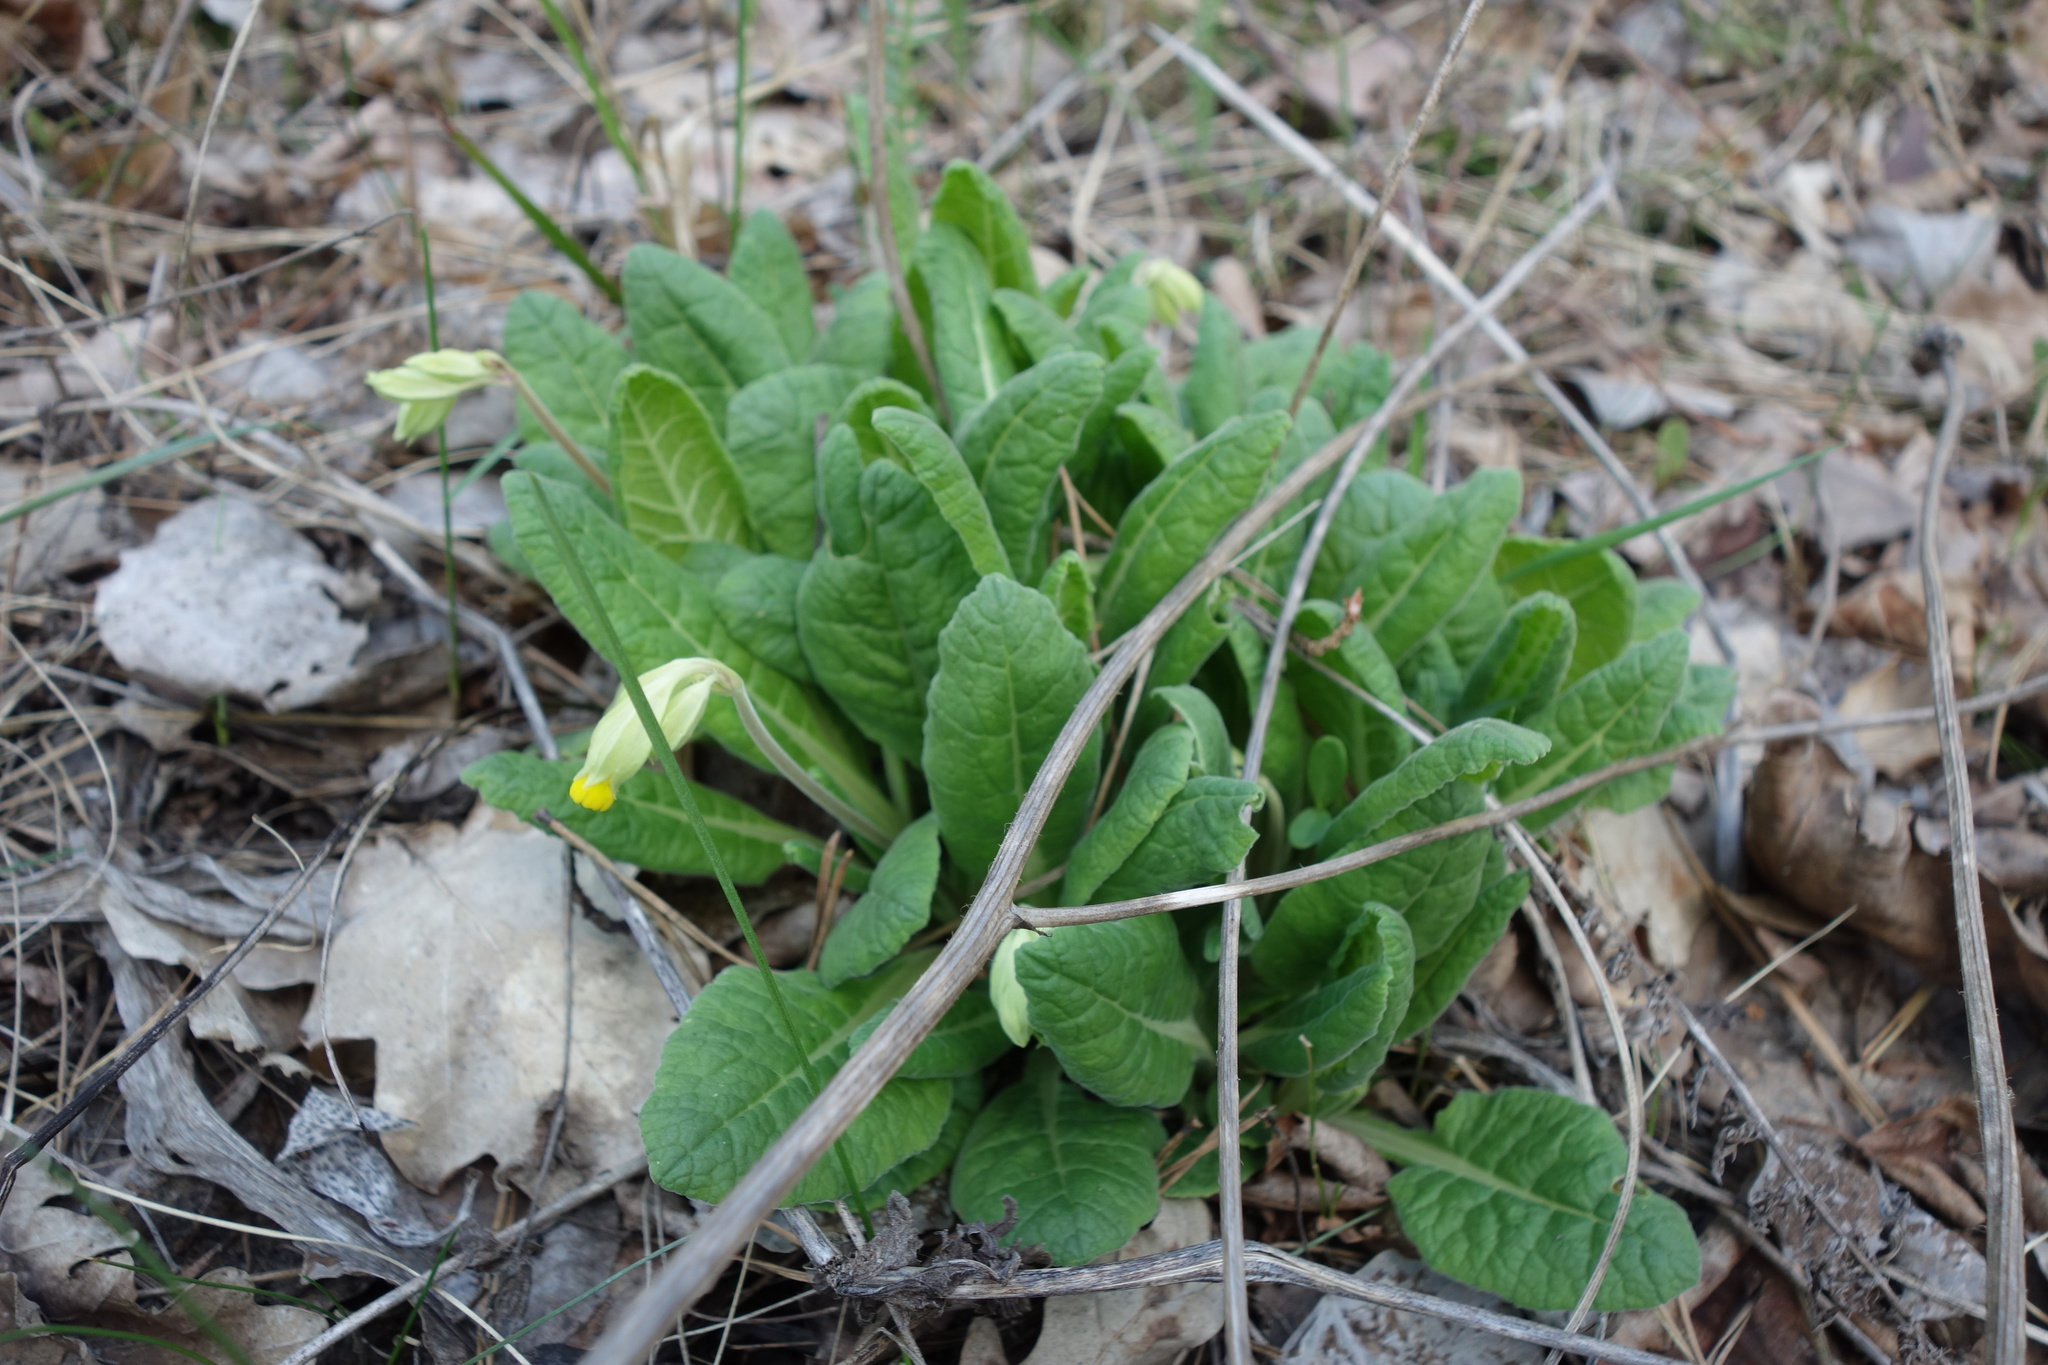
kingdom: Plantae
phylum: Tracheophyta
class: Magnoliopsida
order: Ericales
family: Primulaceae
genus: Primula
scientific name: Primula veris
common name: Cowslip
